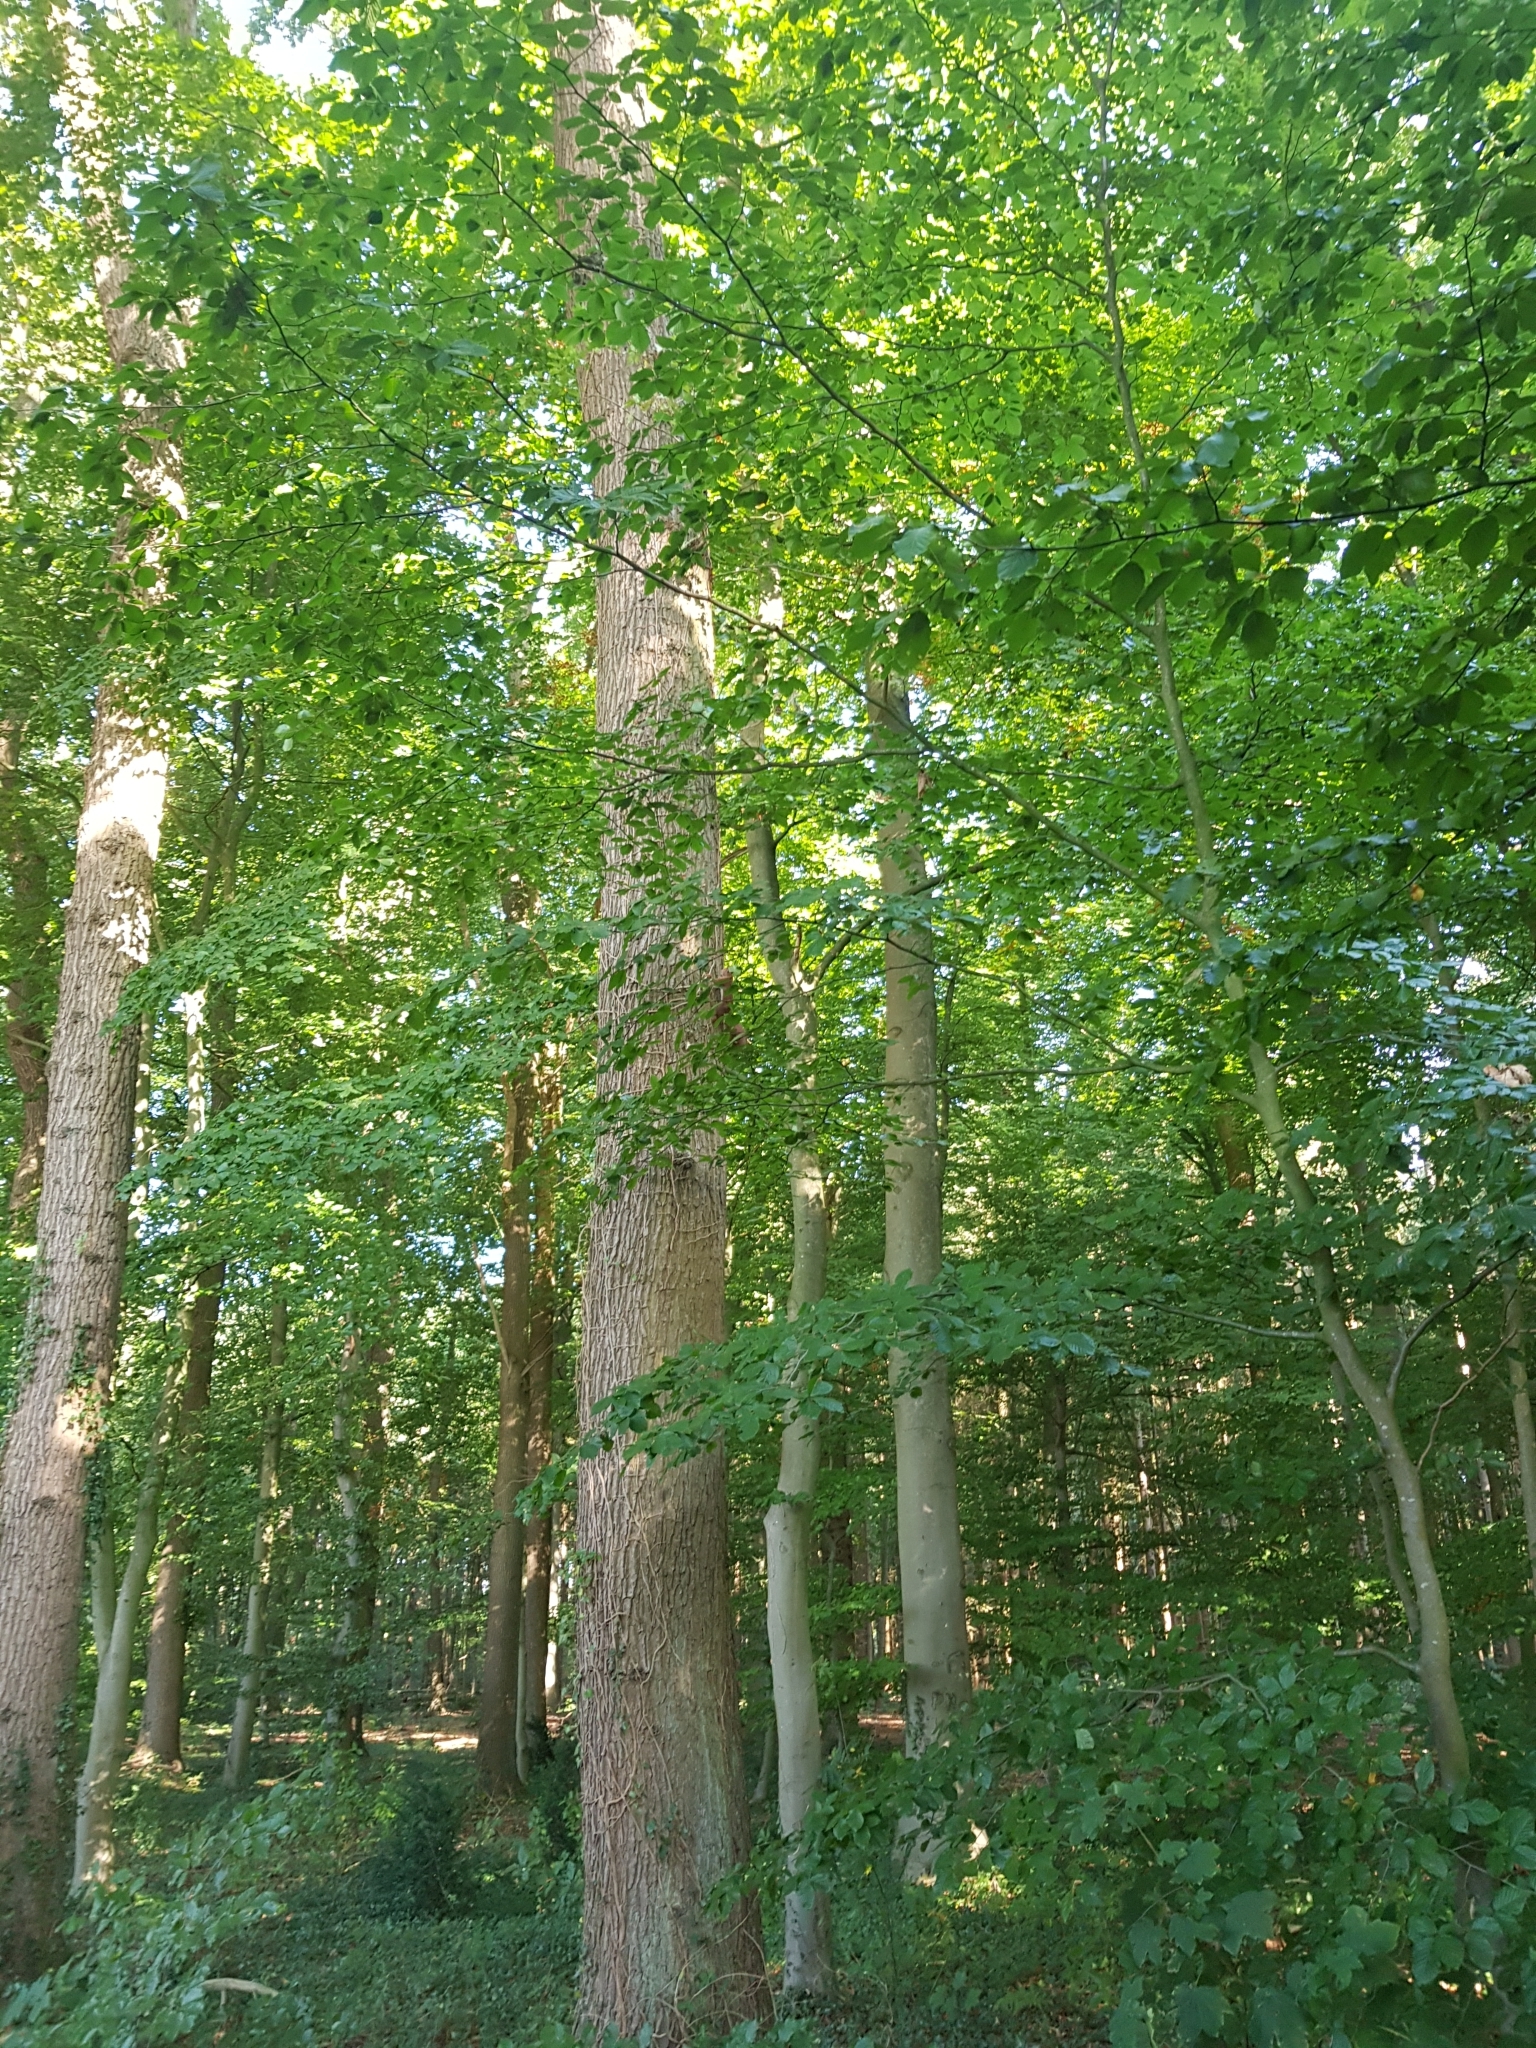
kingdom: Animalia
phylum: Chordata
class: Mammalia
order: Rodentia
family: Sciuridae
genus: Sciurus
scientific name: Sciurus vulgaris
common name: Eurasian red squirrel
